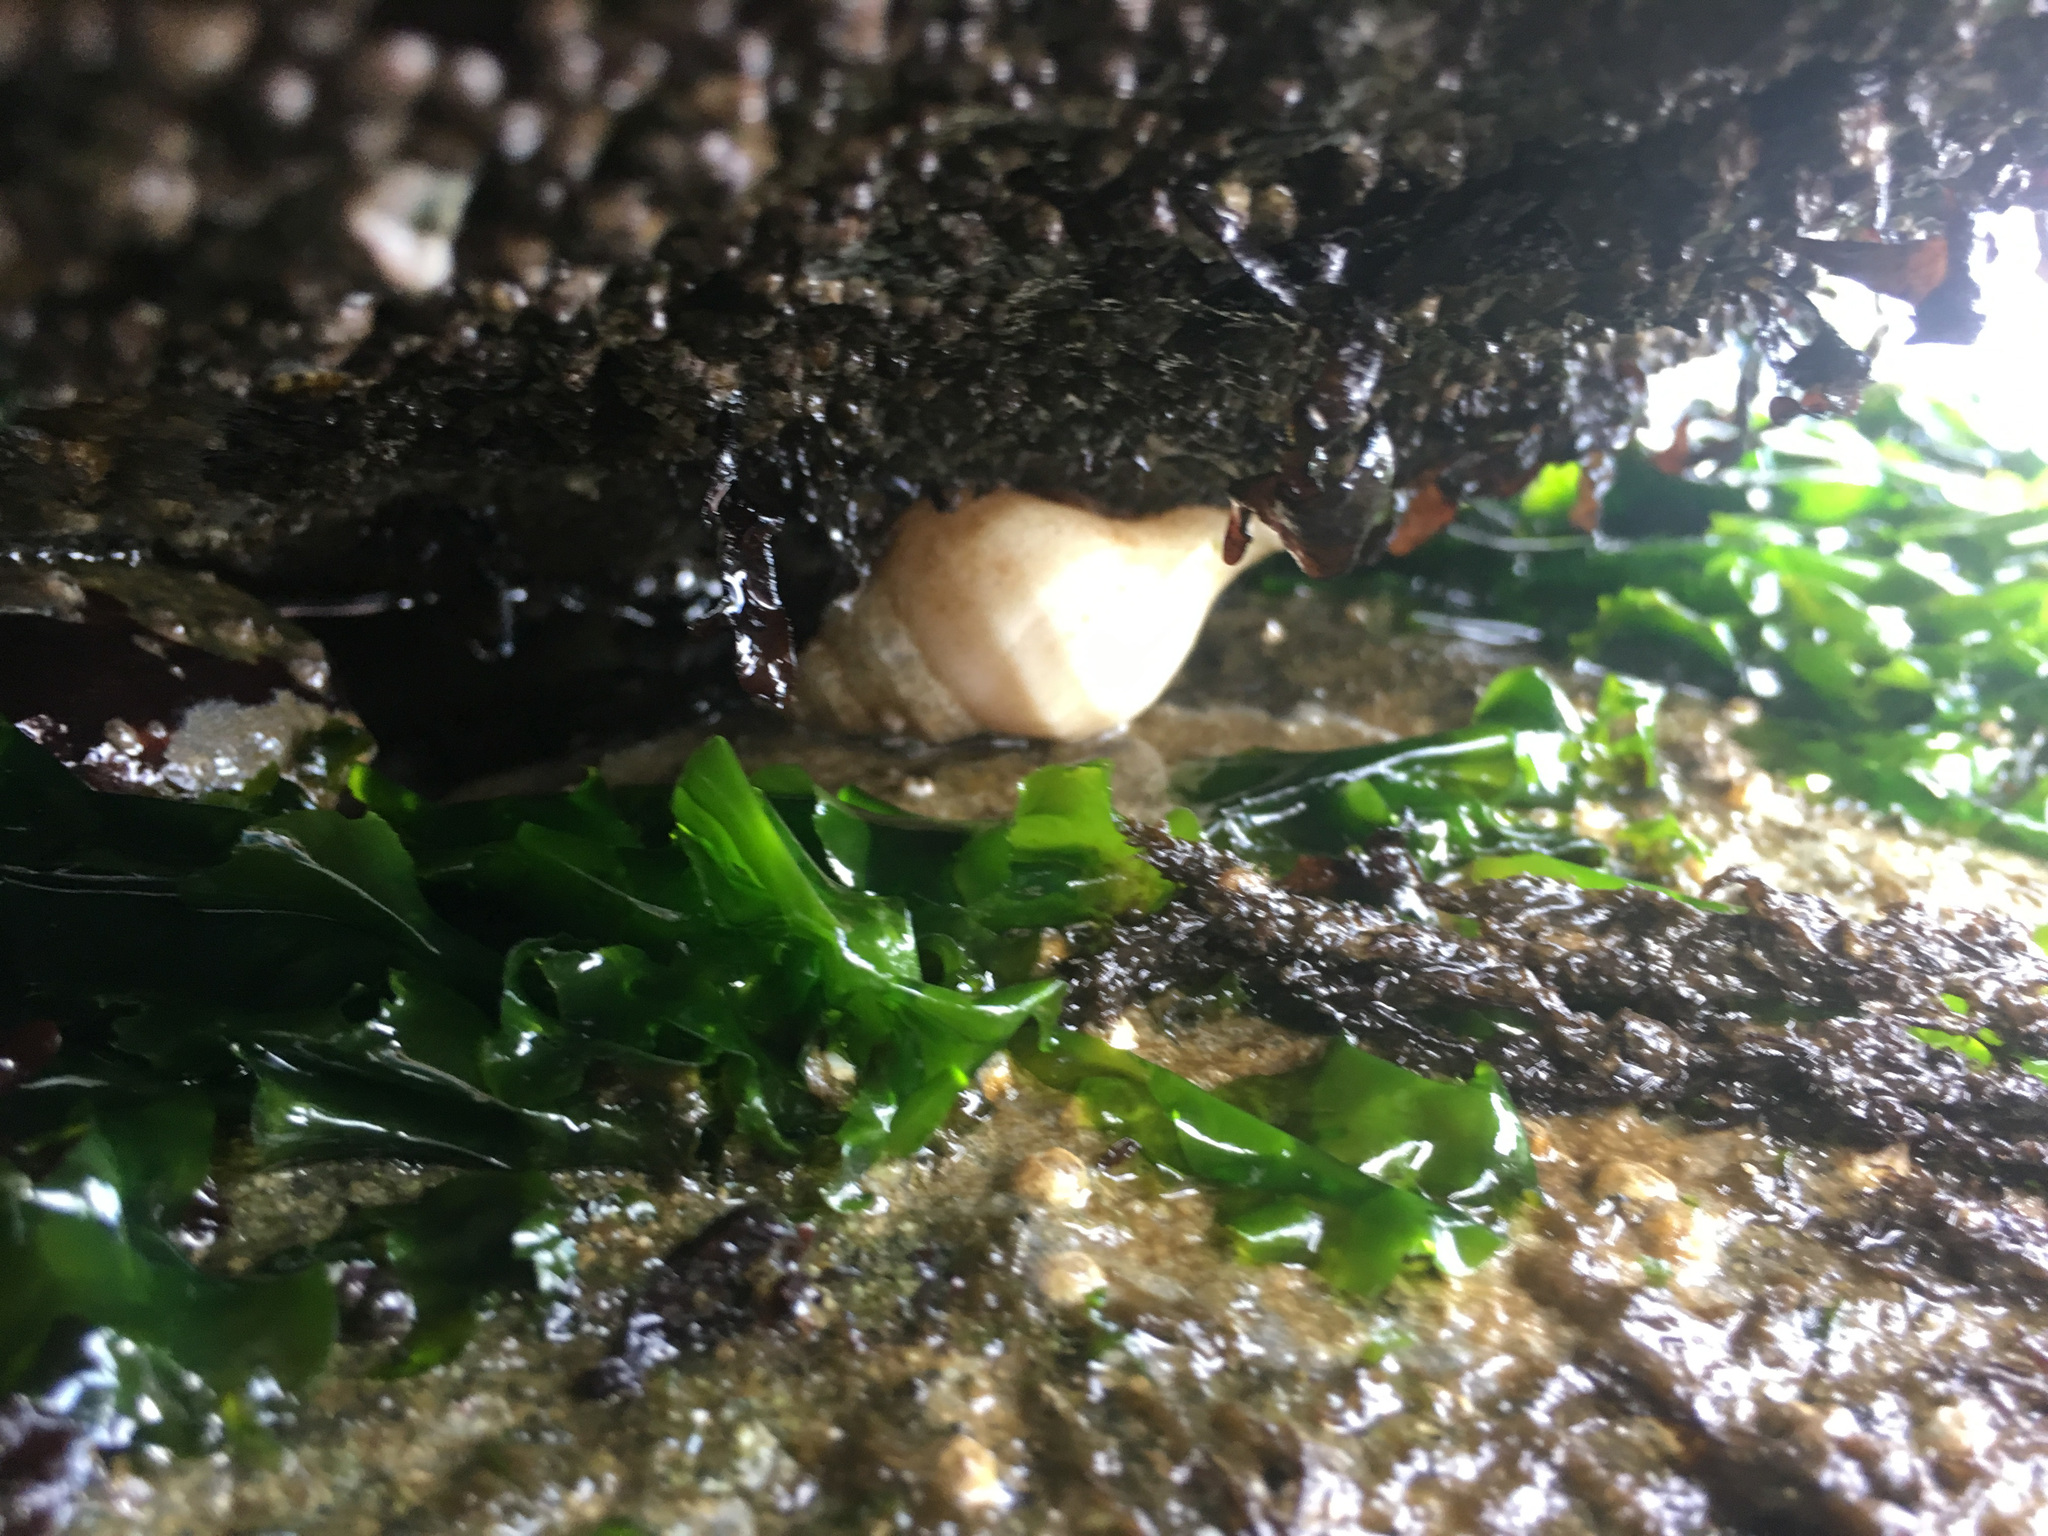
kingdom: Animalia
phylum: Mollusca
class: Gastropoda
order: Neogastropoda
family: Muricidae
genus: Nucella
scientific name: Nucella lamellosa
